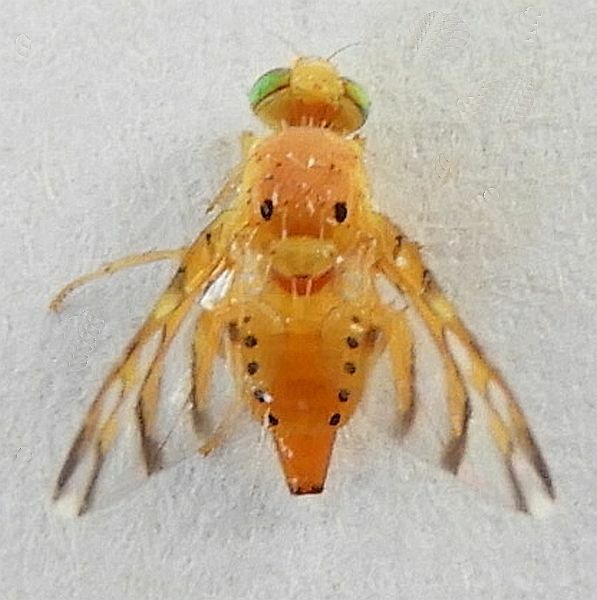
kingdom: Animalia
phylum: Arthropoda
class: Insecta
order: Diptera
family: Tephritidae
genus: Tomoplagia
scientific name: Tomoplagia cressoni
